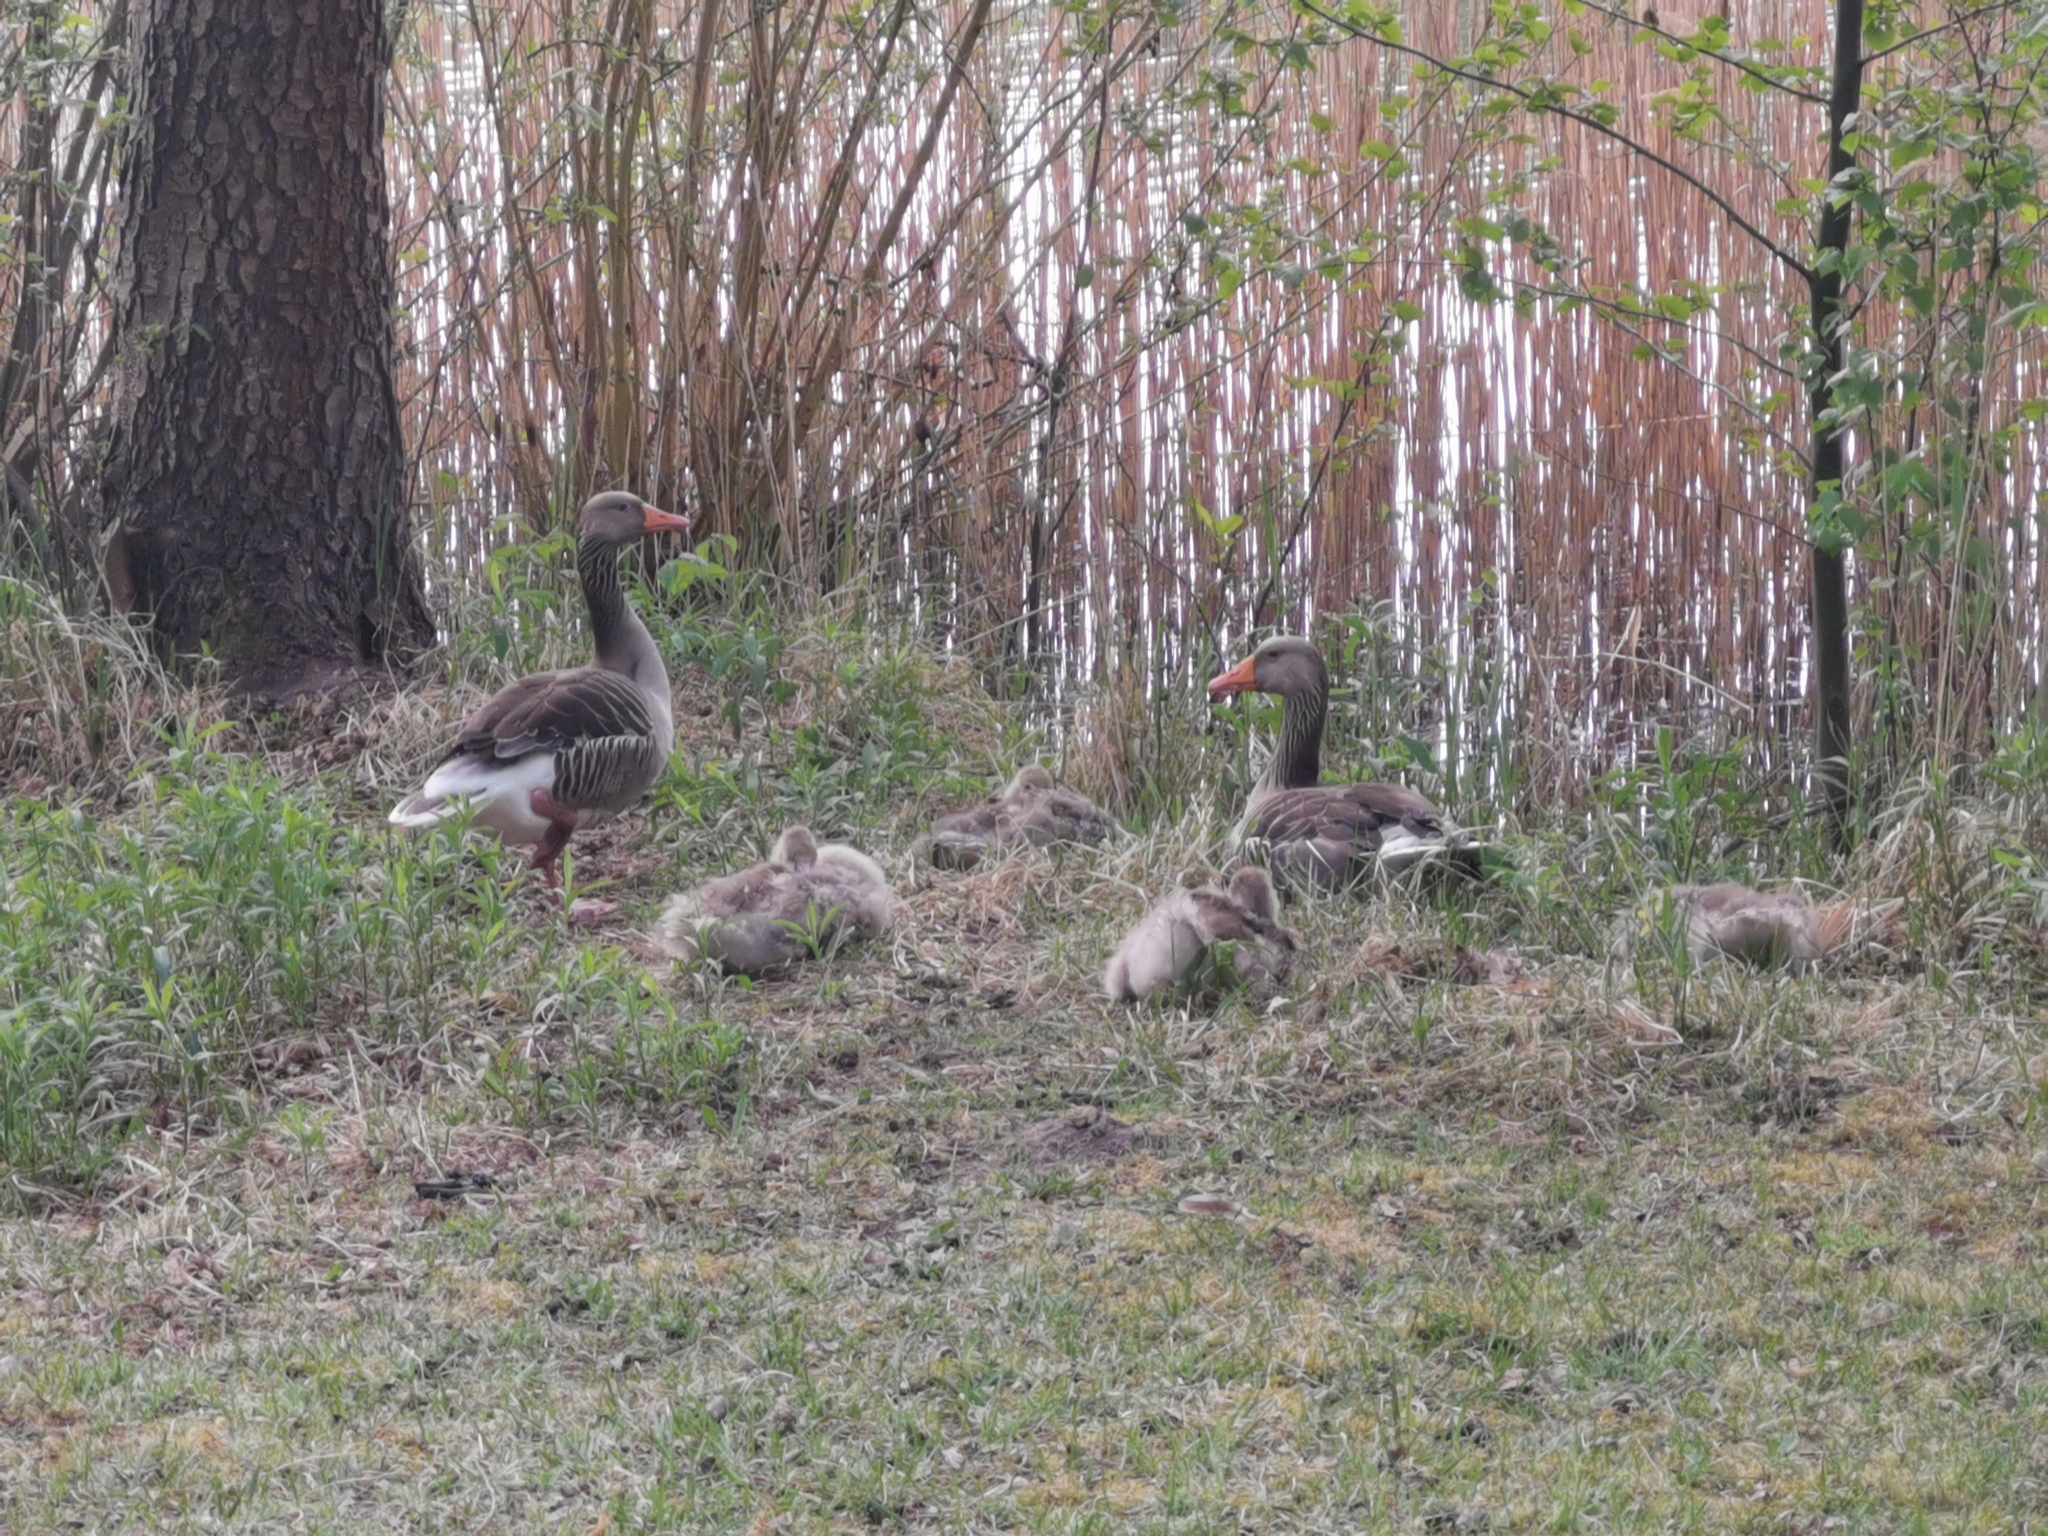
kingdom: Animalia
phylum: Chordata
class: Aves
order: Anseriformes
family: Anatidae
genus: Anser
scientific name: Anser anser
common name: Greylag goose
